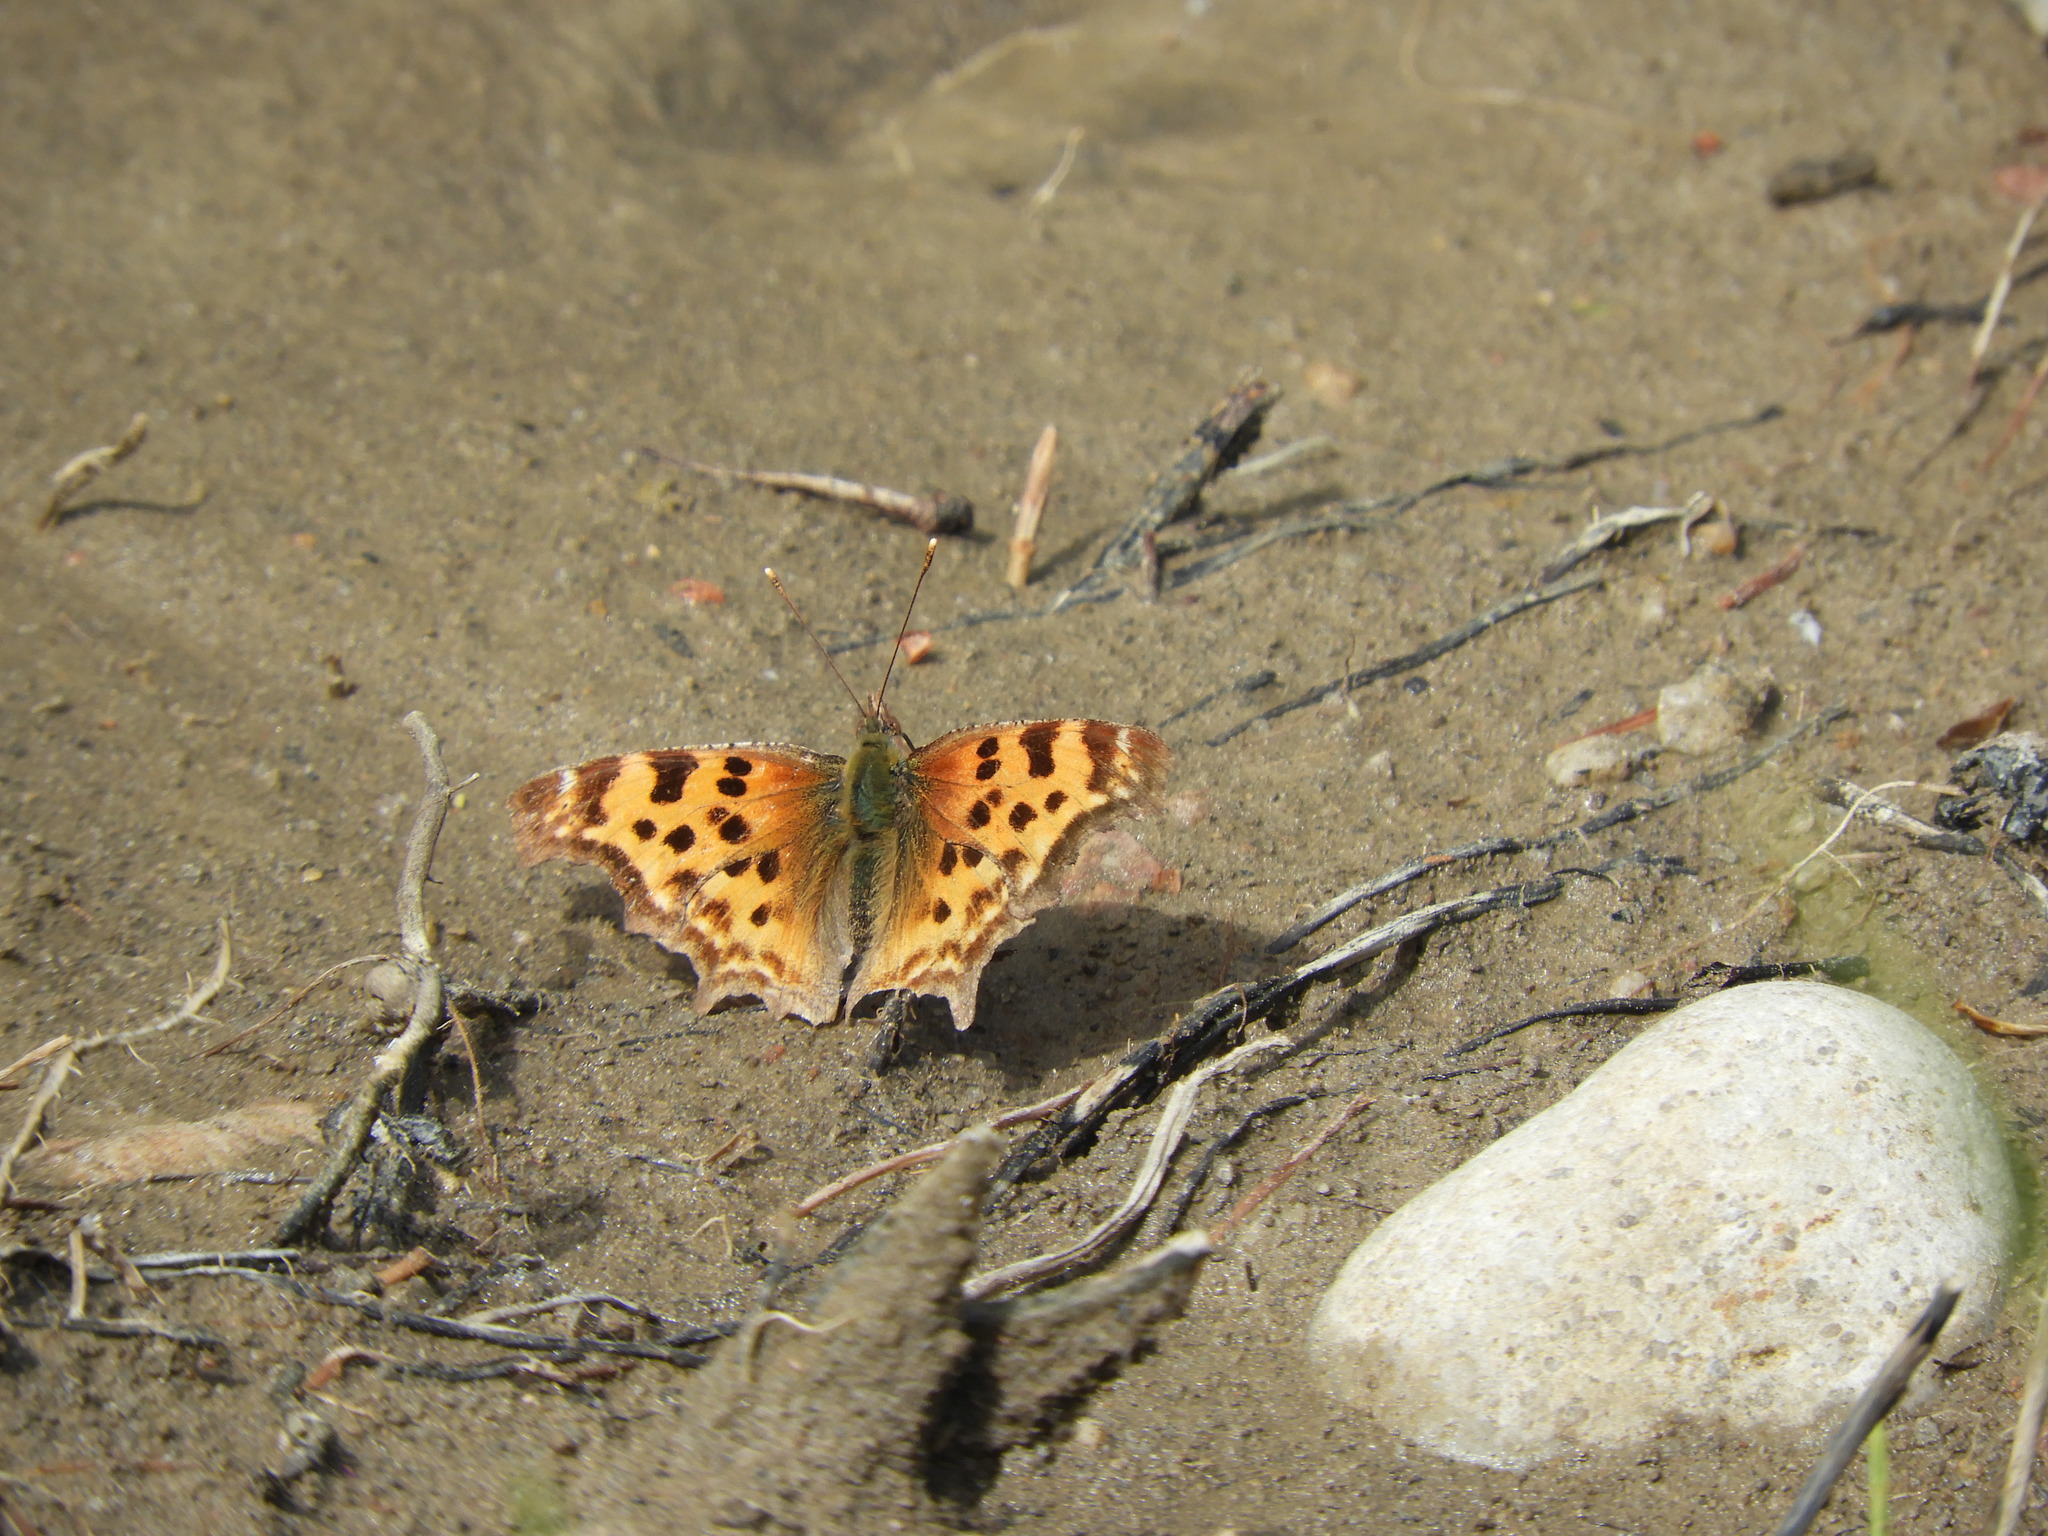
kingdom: Animalia
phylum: Arthropoda
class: Insecta
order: Lepidoptera
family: Nymphalidae
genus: Polygonia
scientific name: Polygonia satyrus
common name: Satyr angle wing
